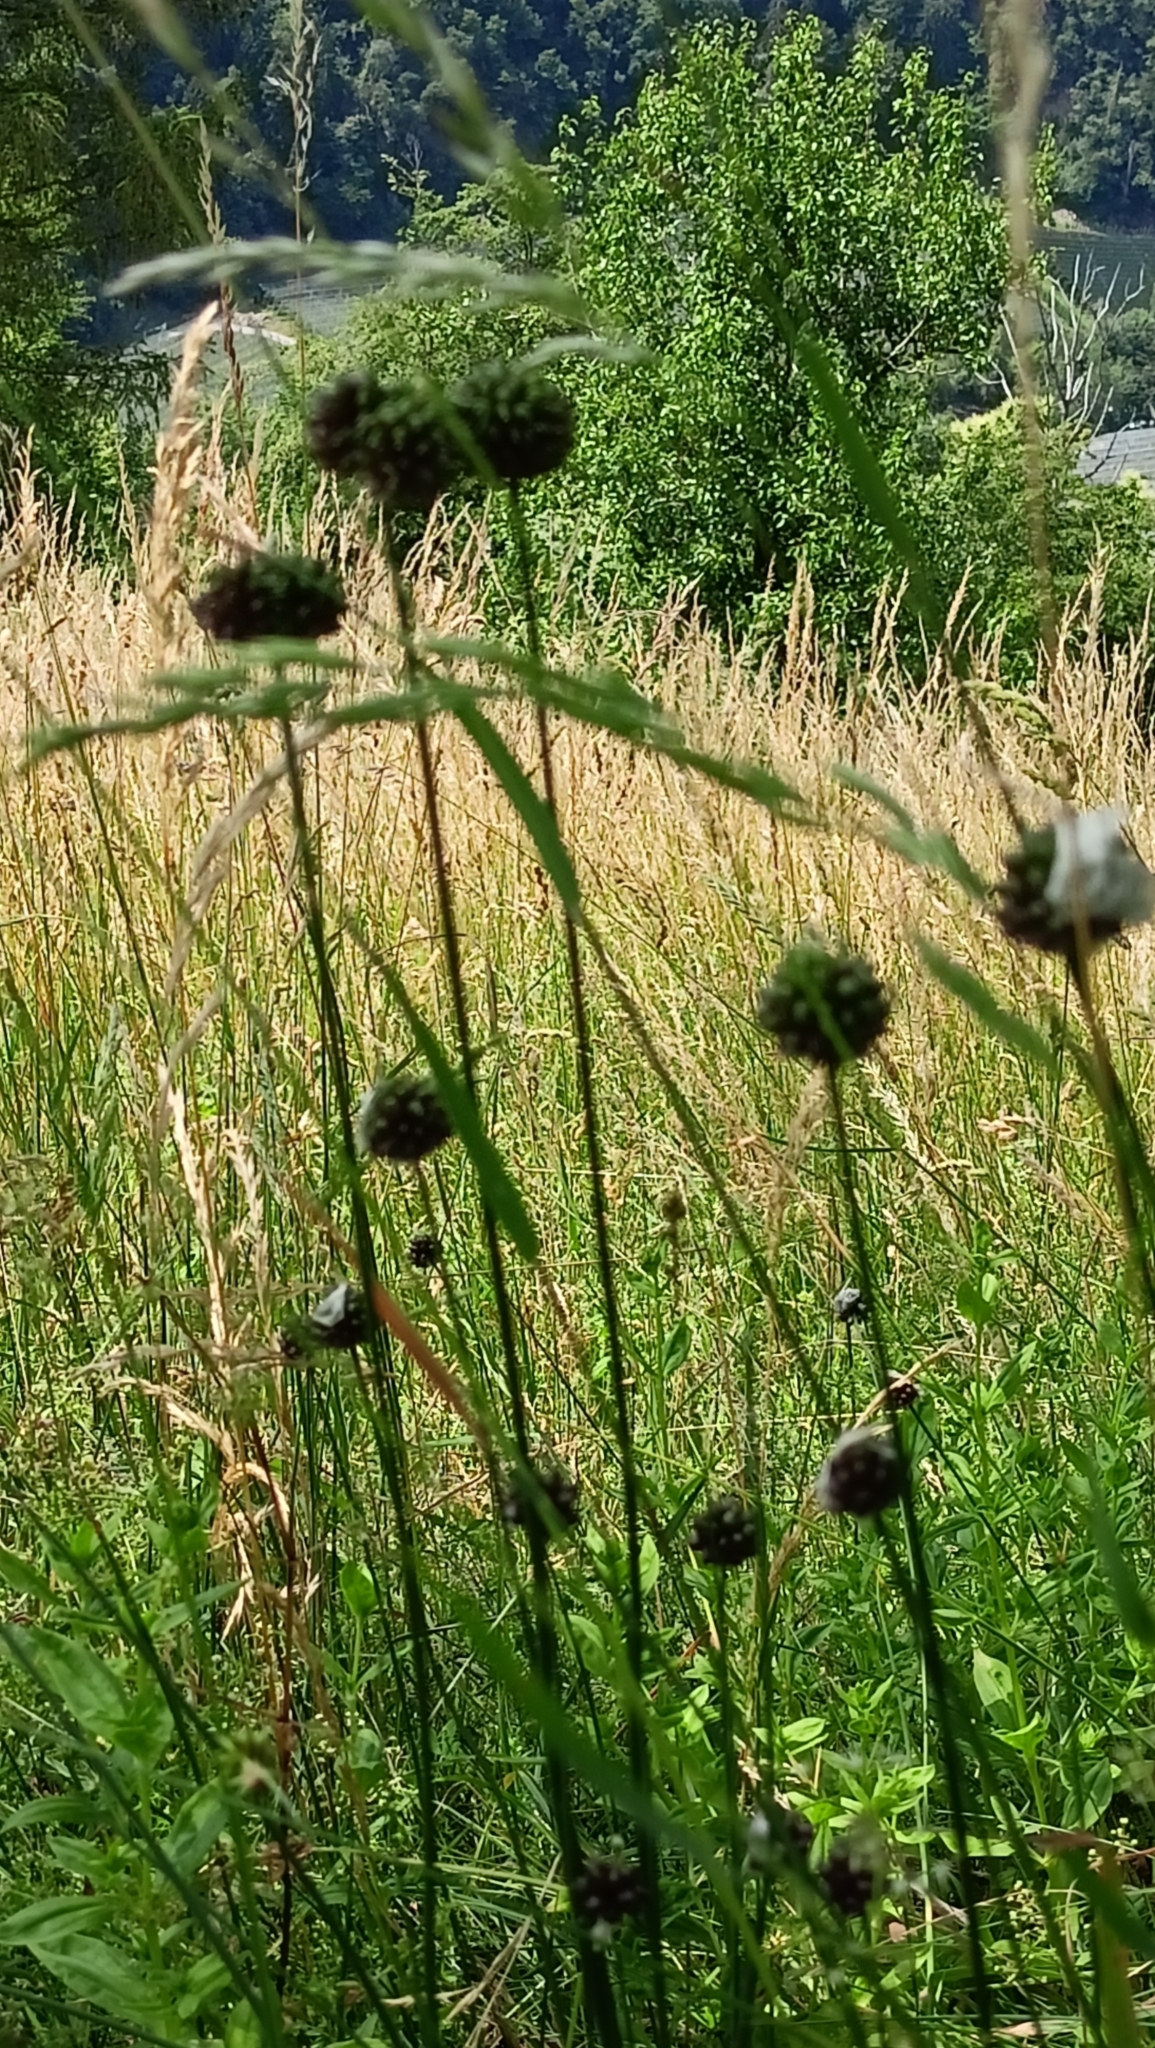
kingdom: Plantae
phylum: Tracheophyta
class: Liliopsida
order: Asparagales
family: Amaryllidaceae
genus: Allium
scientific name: Allium vineale
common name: Crow garlic
